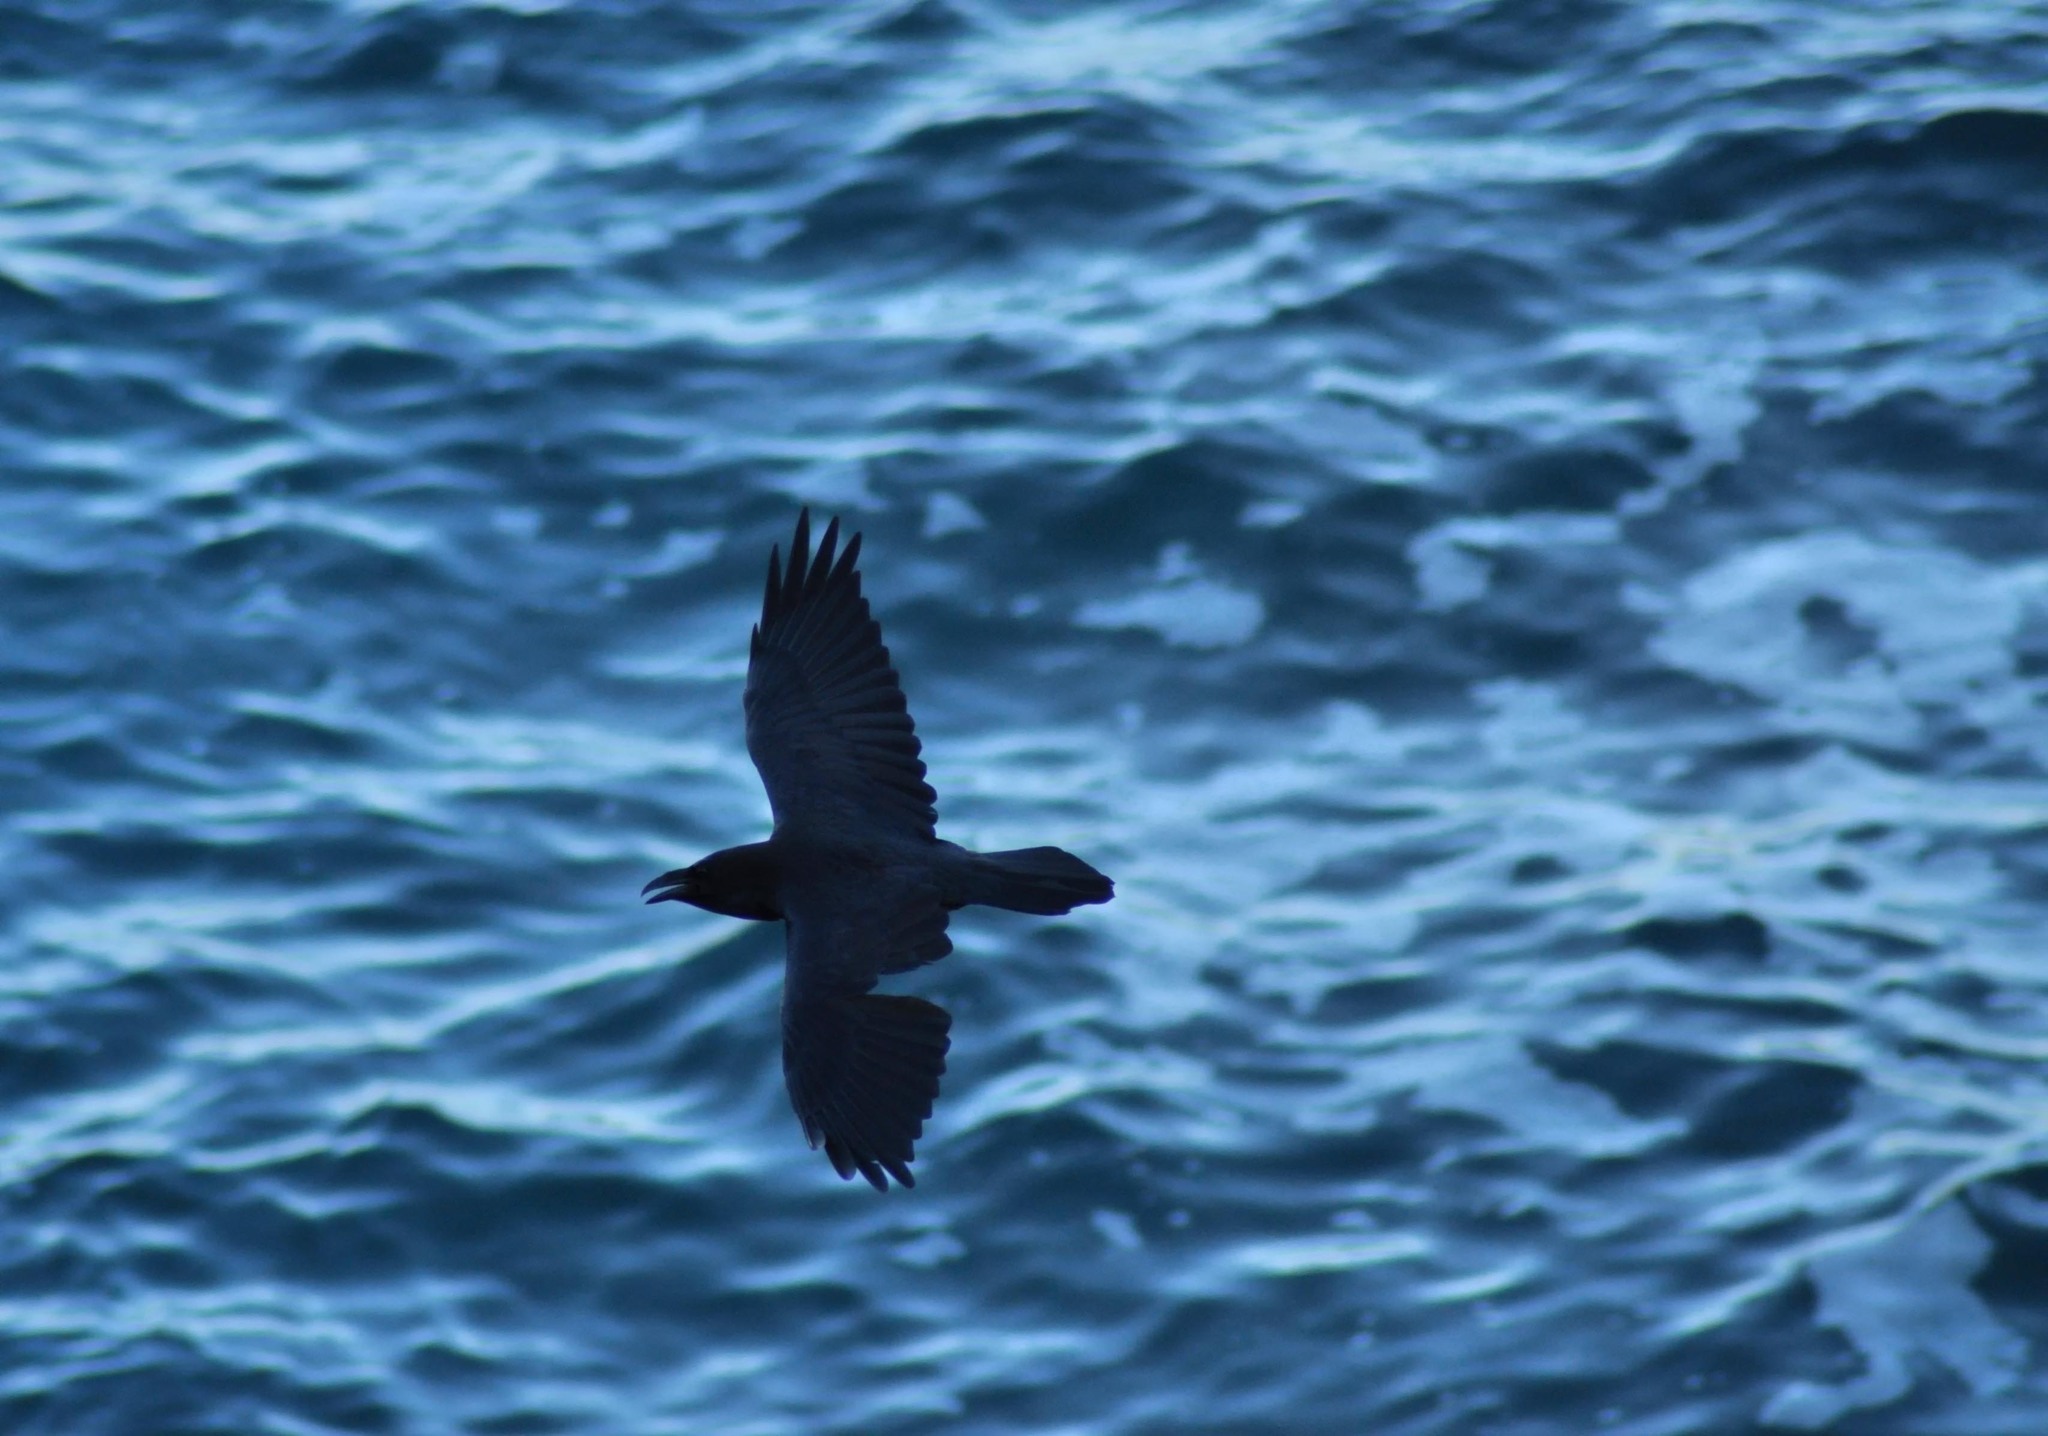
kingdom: Animalia
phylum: Chordata
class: Aves
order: Passeriformes
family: Corvidae
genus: Corvus
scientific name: Corvus corax
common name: Common raven
